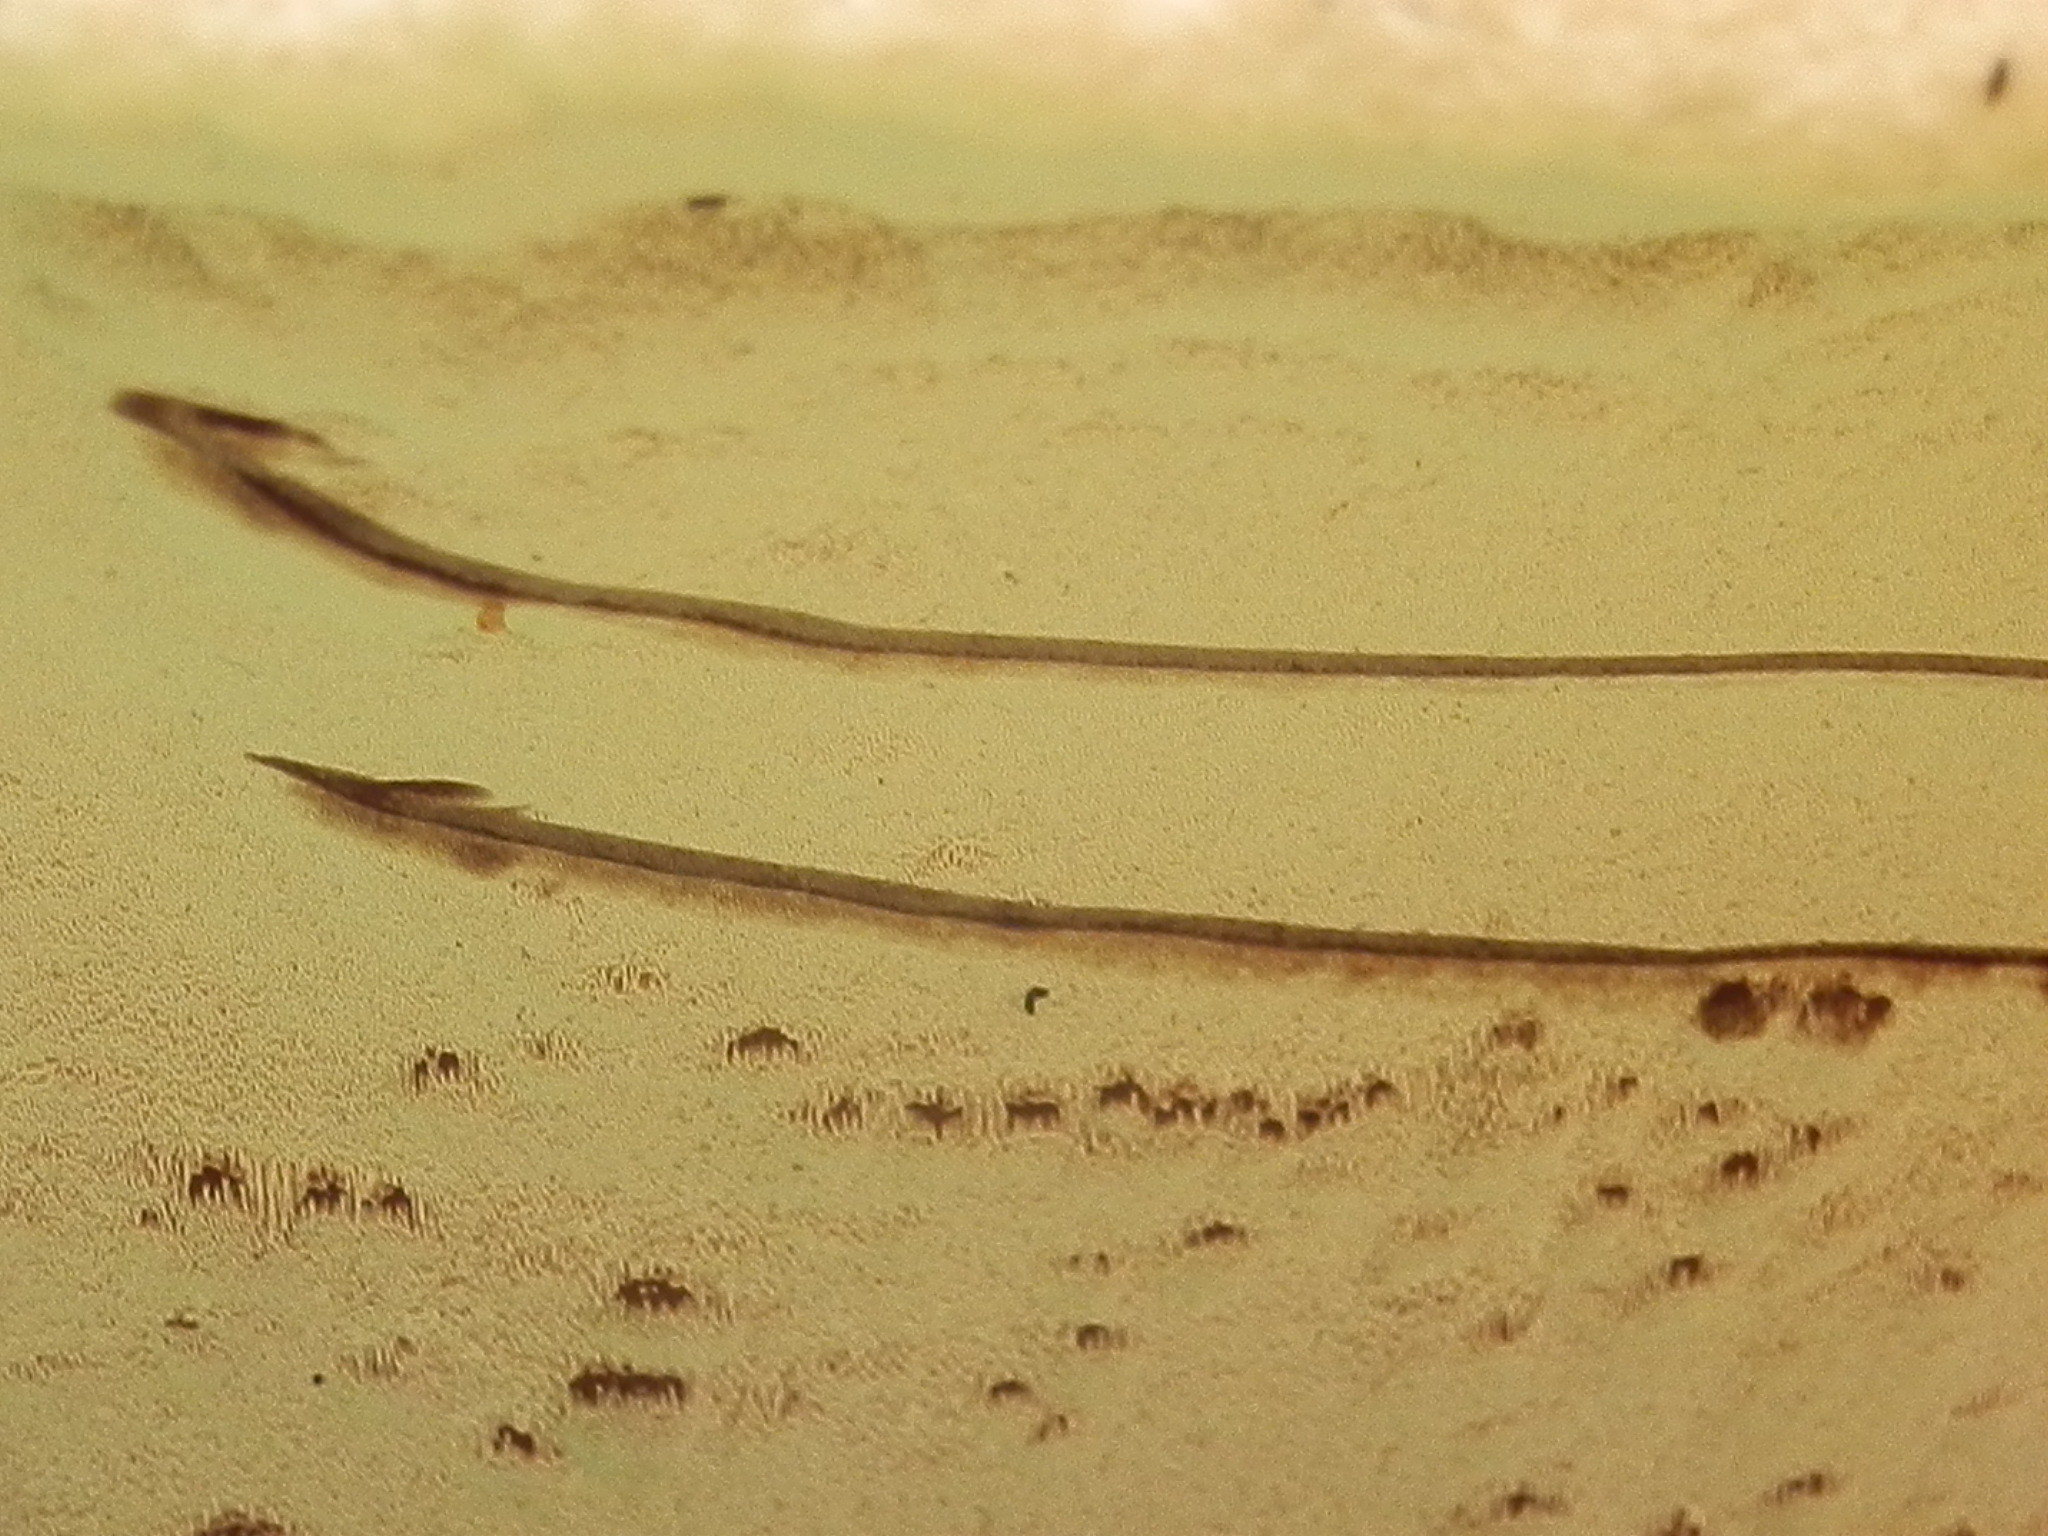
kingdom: Fungi
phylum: Basidiomycota
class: Agaricomycetes
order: Polyporales
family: Polyporaceae
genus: Ganoderma
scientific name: Ganoderma applanatum
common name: Artist's bracket
